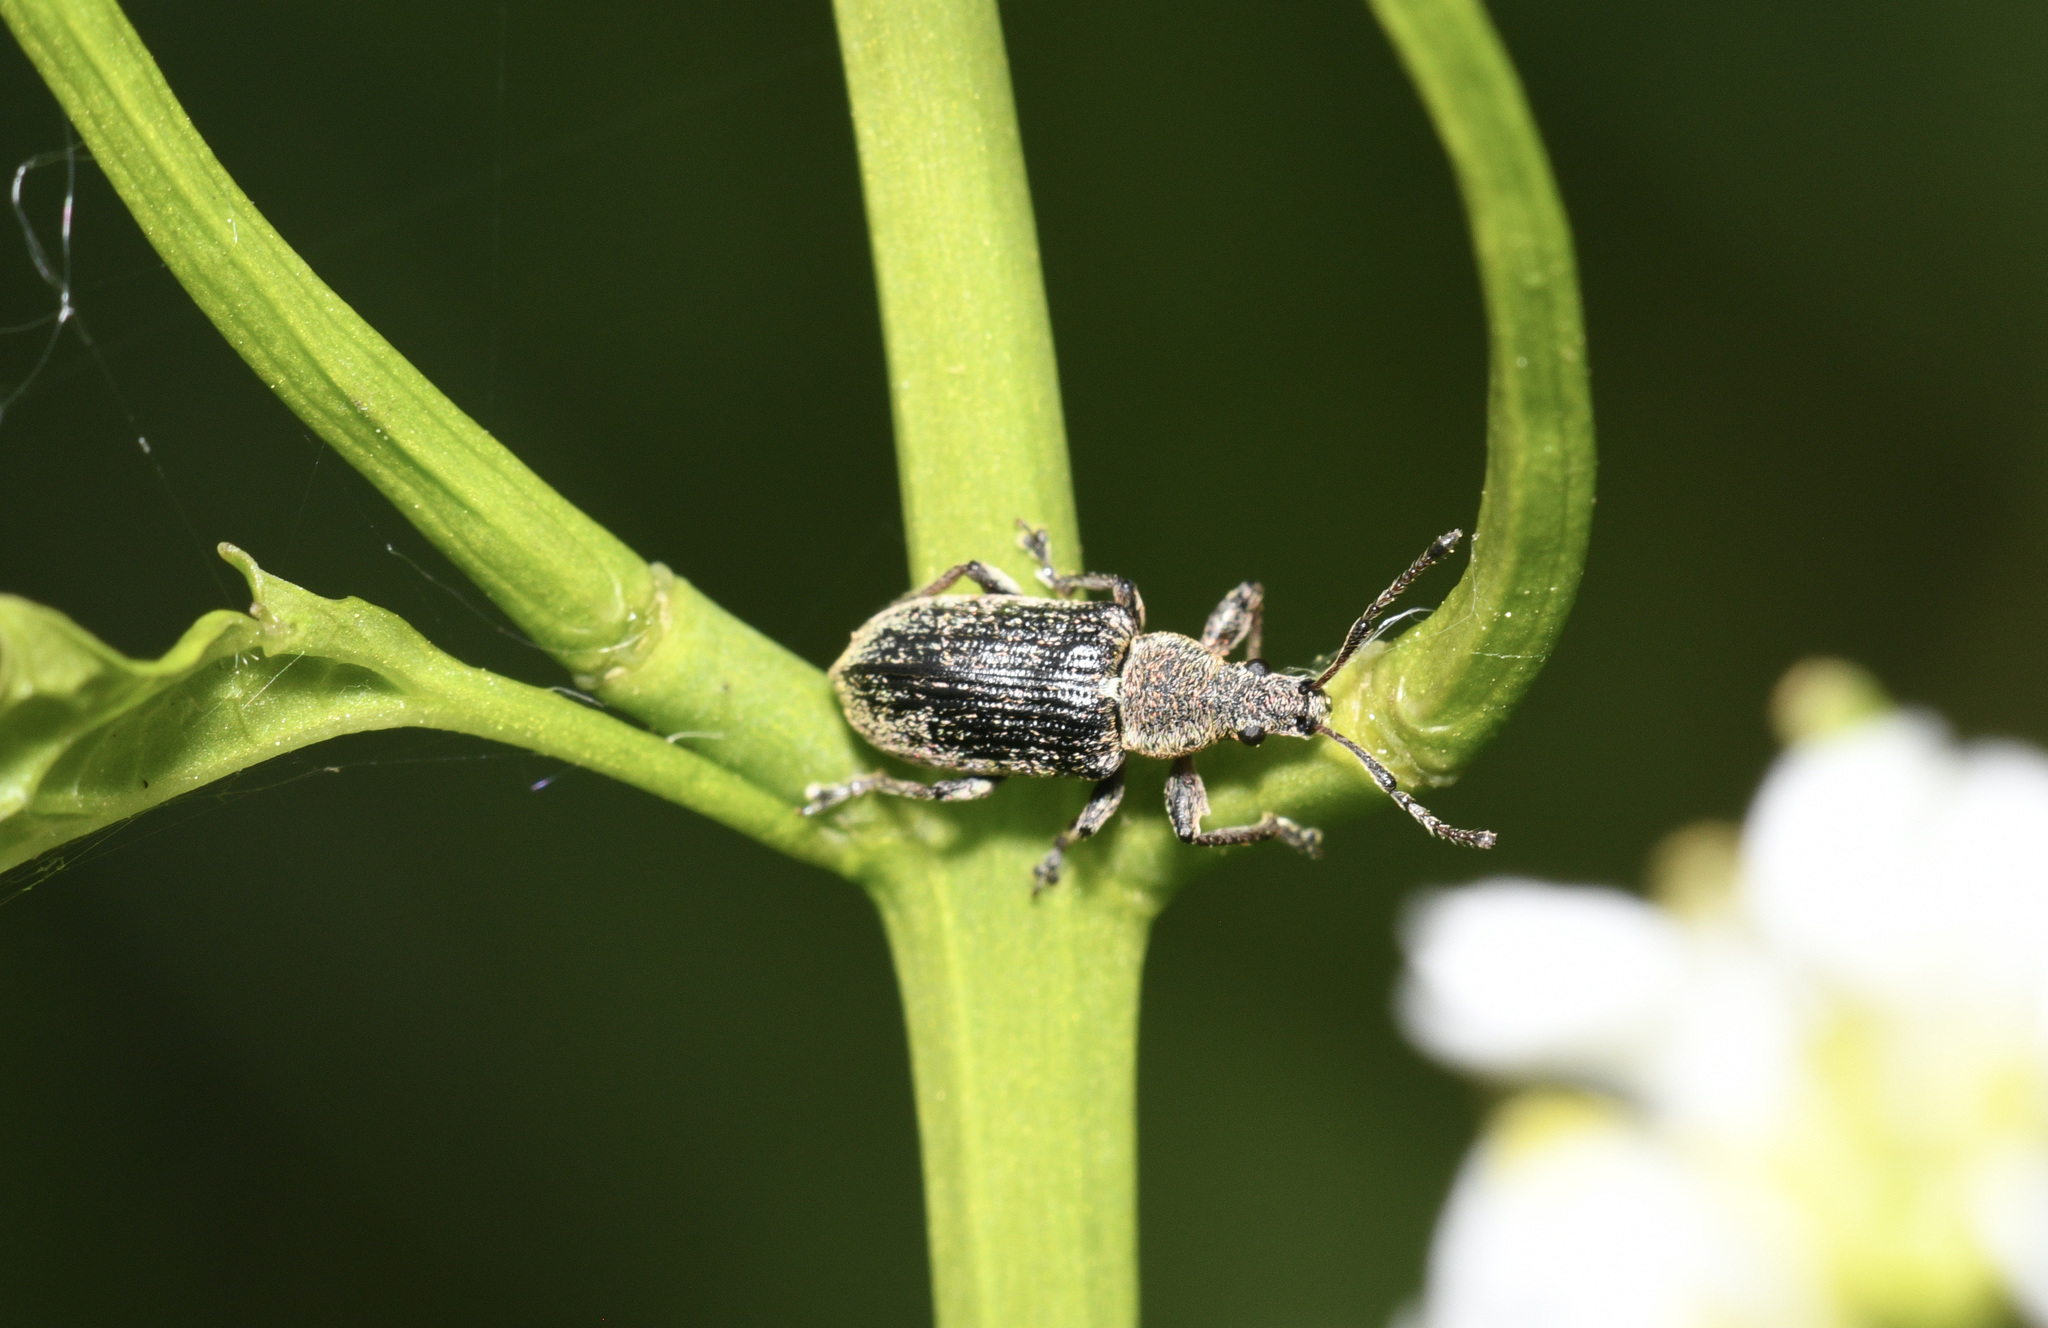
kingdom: Animalia
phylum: Arthropoda
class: Insecta
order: Coleoptera
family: Curculionidae
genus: Phyllobius
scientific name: Phyllobius pyri
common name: Common leaf weevil
